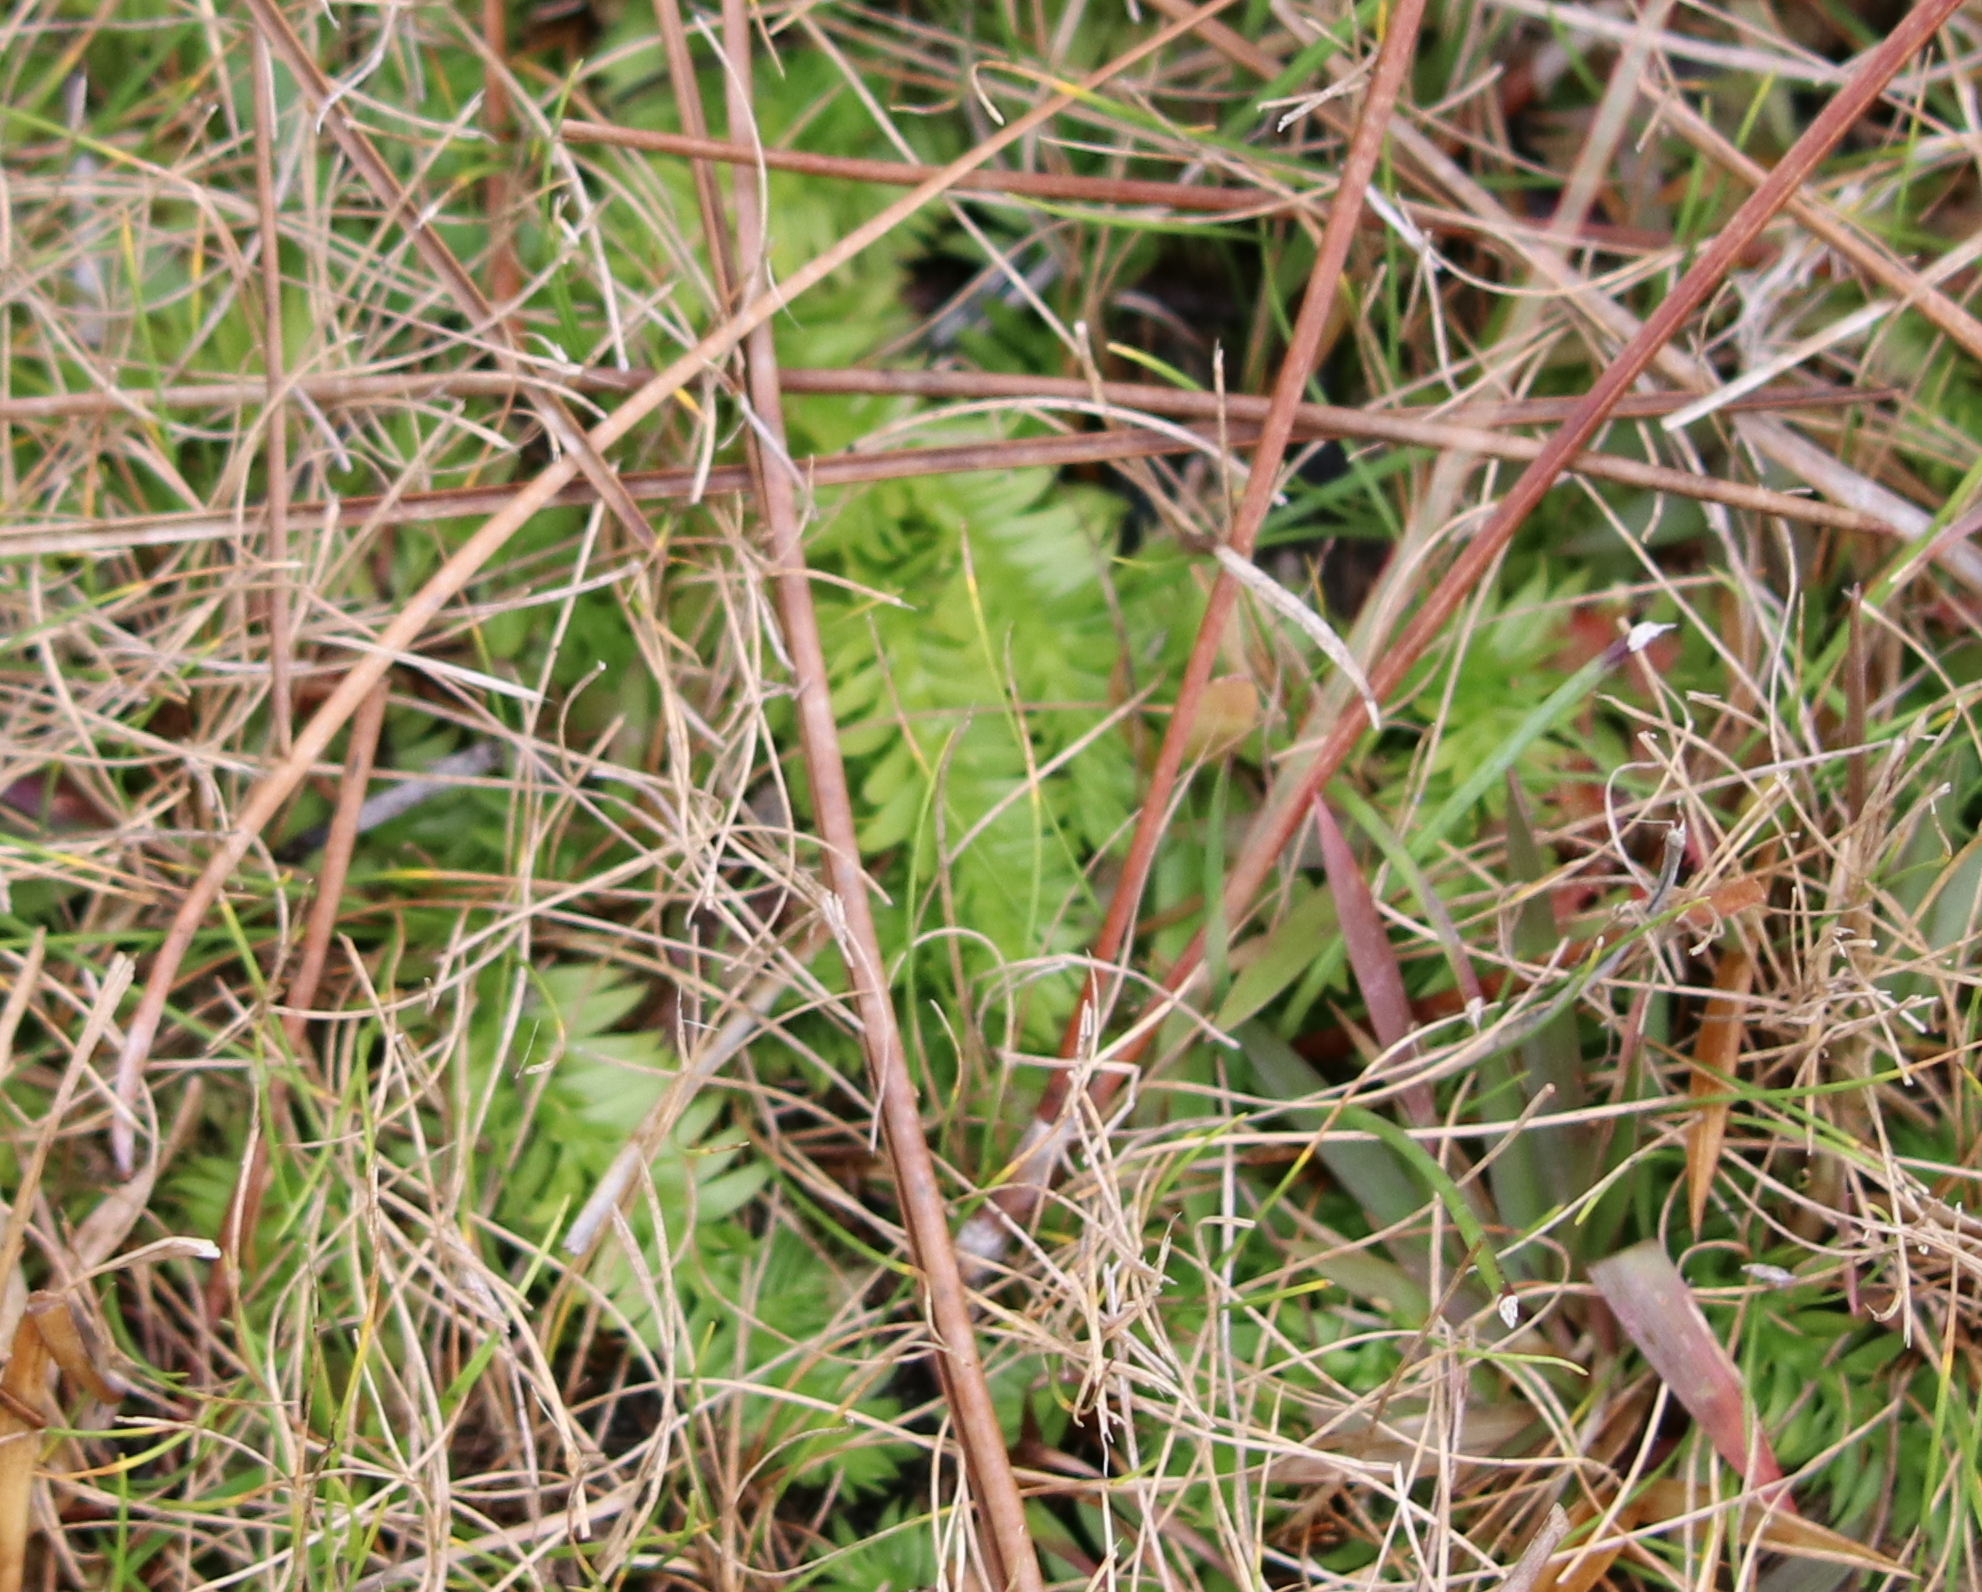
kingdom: Plantae
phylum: Tracheophyta
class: Lycopodiopsida
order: Lycopodiales
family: Lycopodiaceae
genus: Pseudolycopodiella
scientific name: Pseudolycopodiella caroliniana
